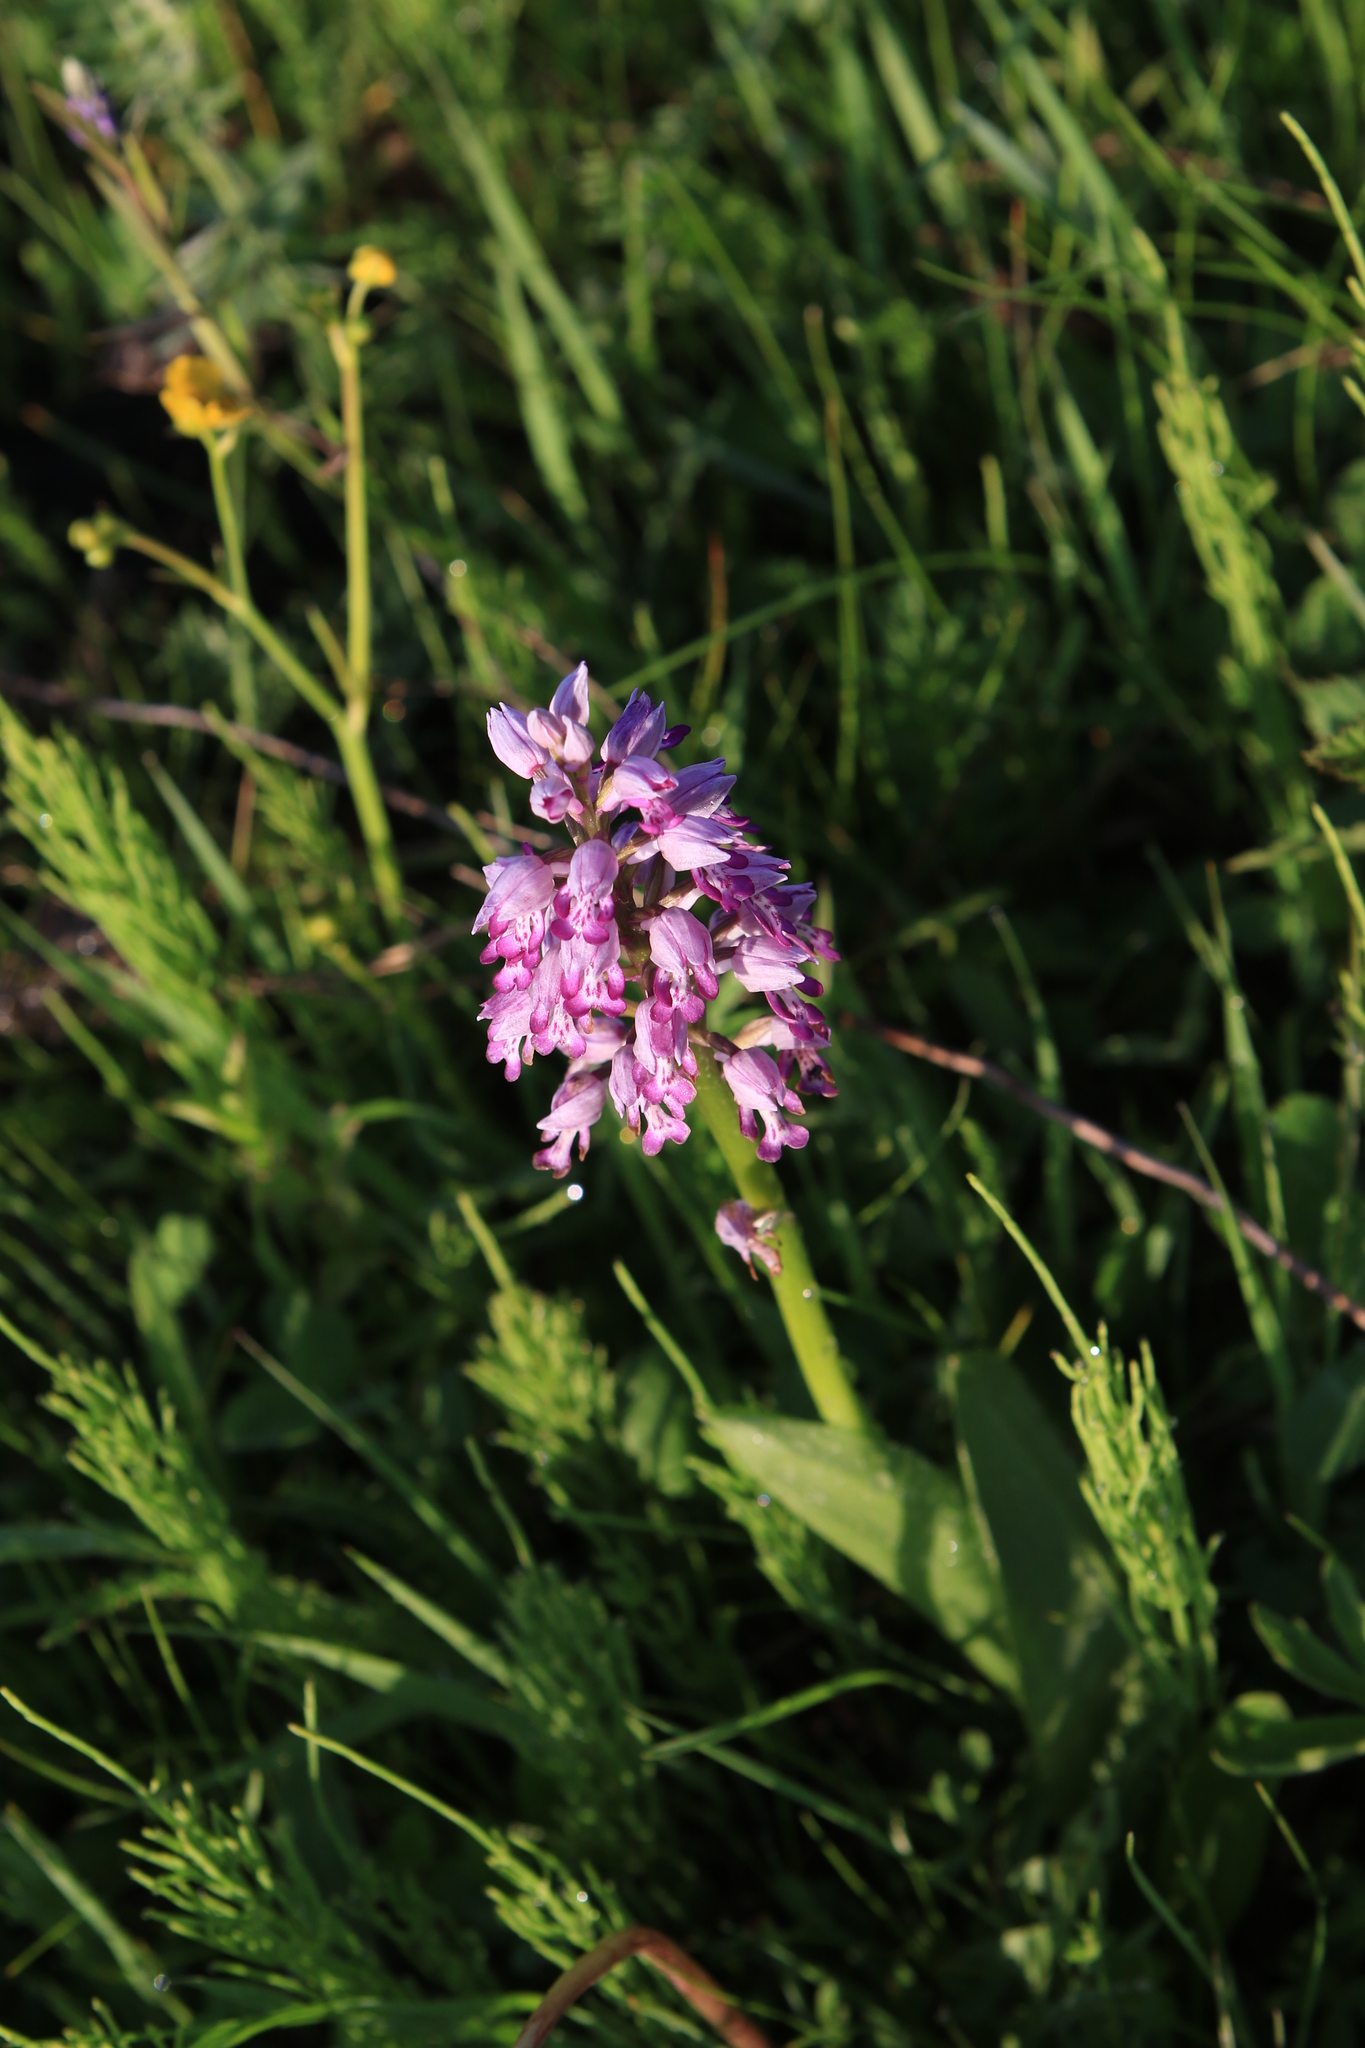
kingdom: Plantae
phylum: Tracheophyta
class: Liliopsida
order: Asparagales
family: Orchidaceae
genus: Orchis
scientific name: Orchis militaris
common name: Military orchid
